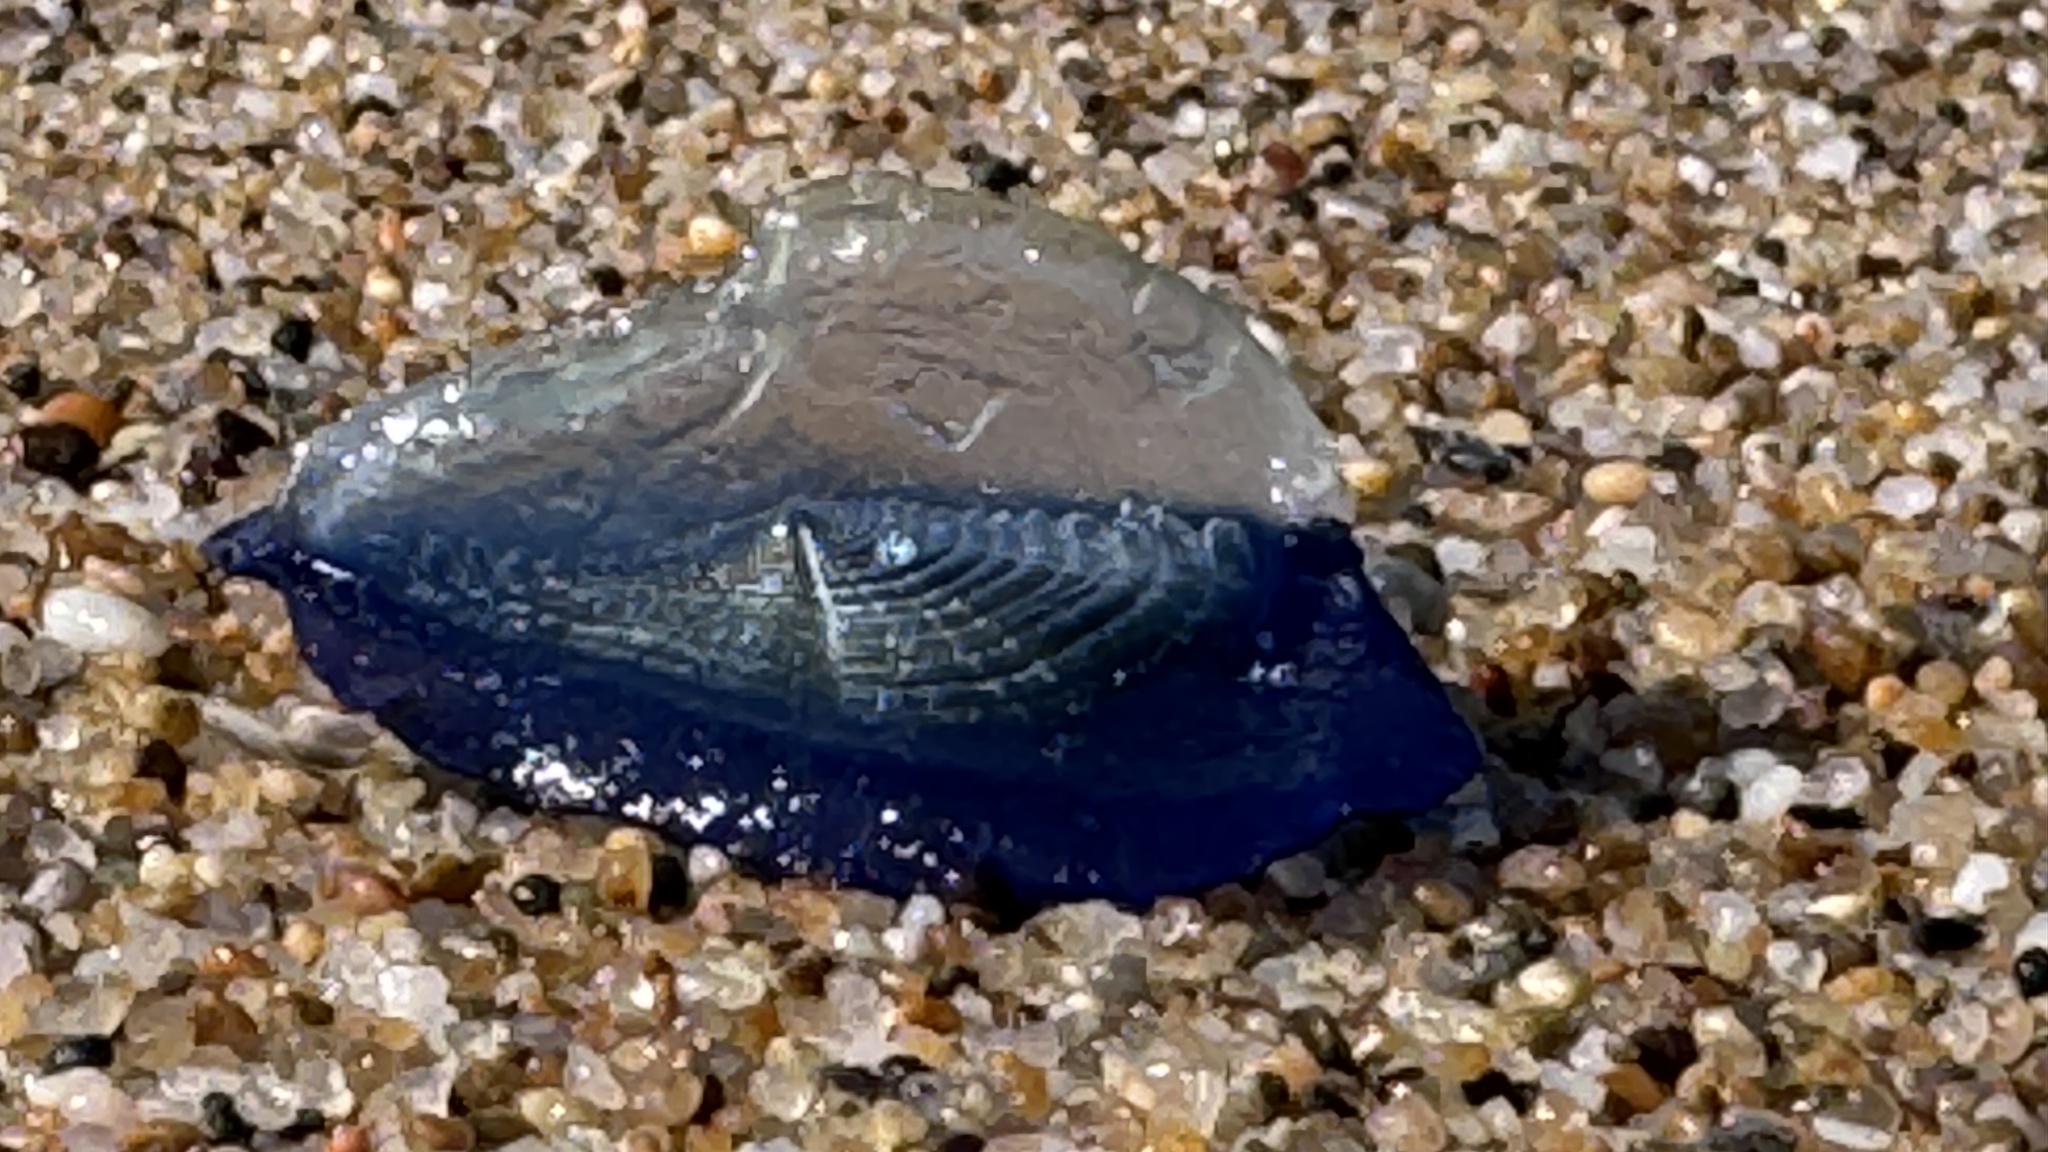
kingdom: Animalia
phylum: Cnidaria
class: Hydrozoa
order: Anthoathecata
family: Porpitidae
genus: Velella
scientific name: Velella velella
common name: By-the-wind-sailor
